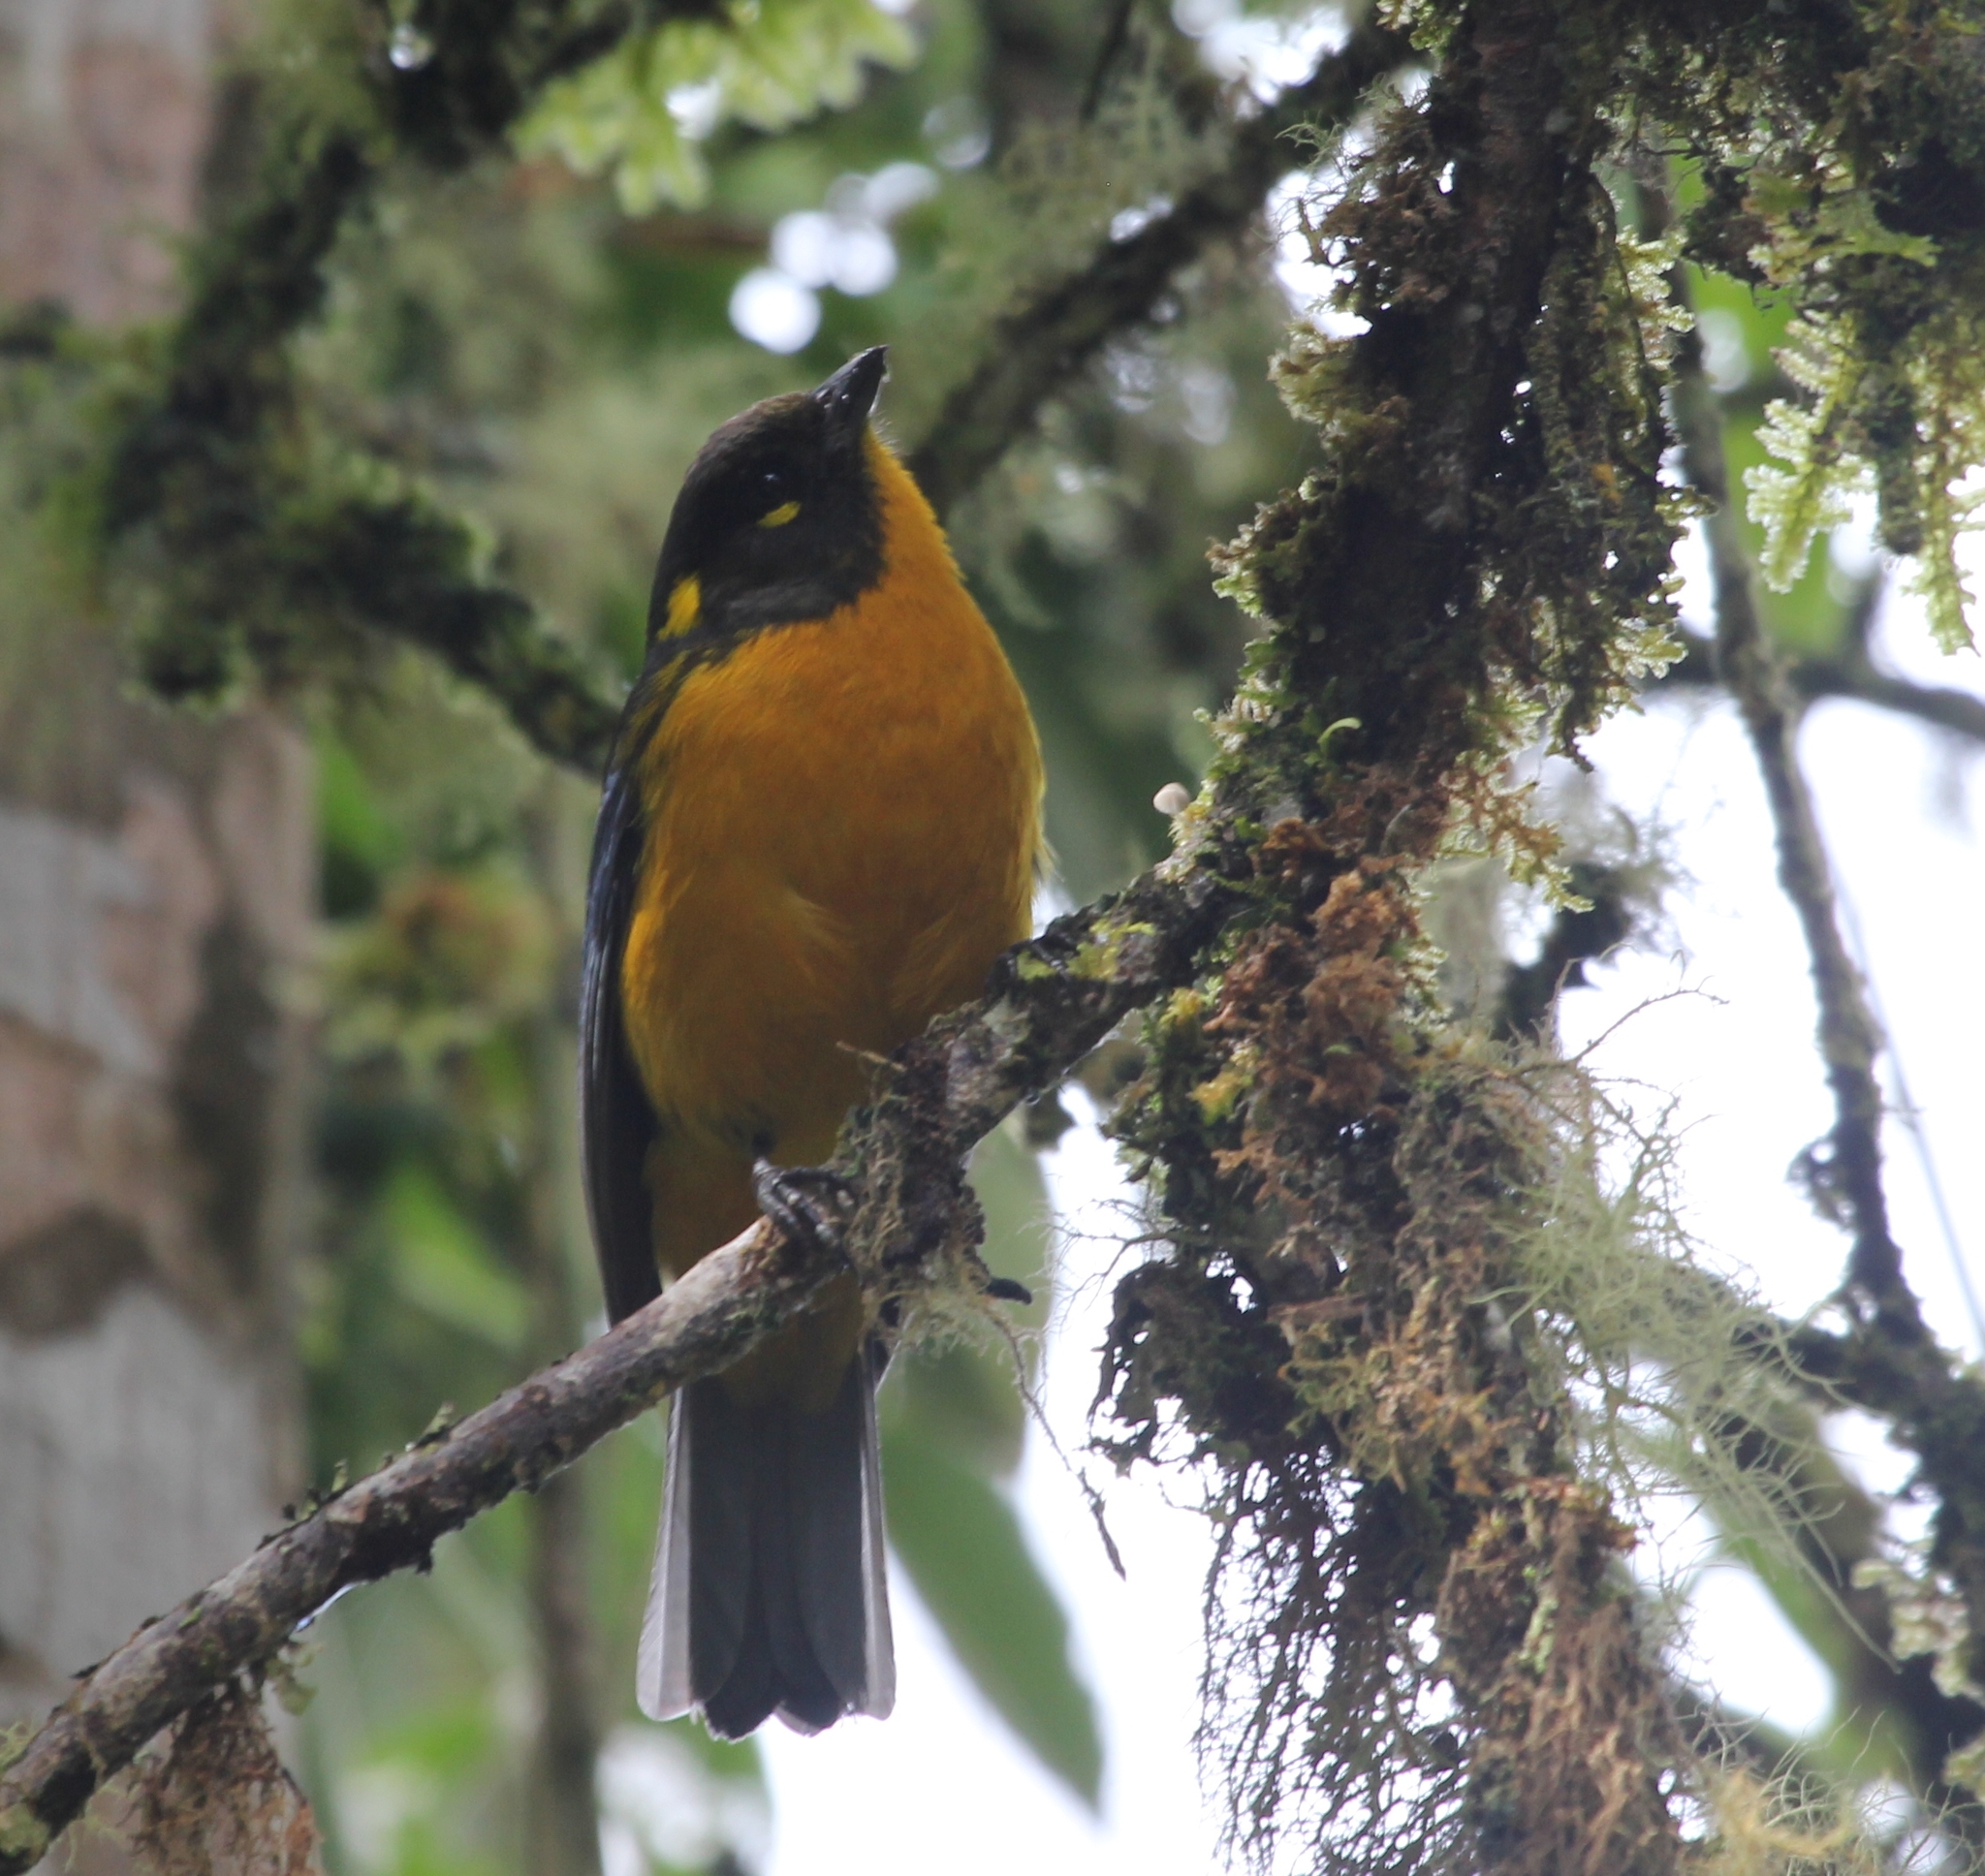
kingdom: Animalia
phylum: Chordata
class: Aves
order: Passeriformes
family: Thraupidae
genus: Anisognathus
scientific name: Anisognathus lacrymosus
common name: Lacrimose mountain-tanager
